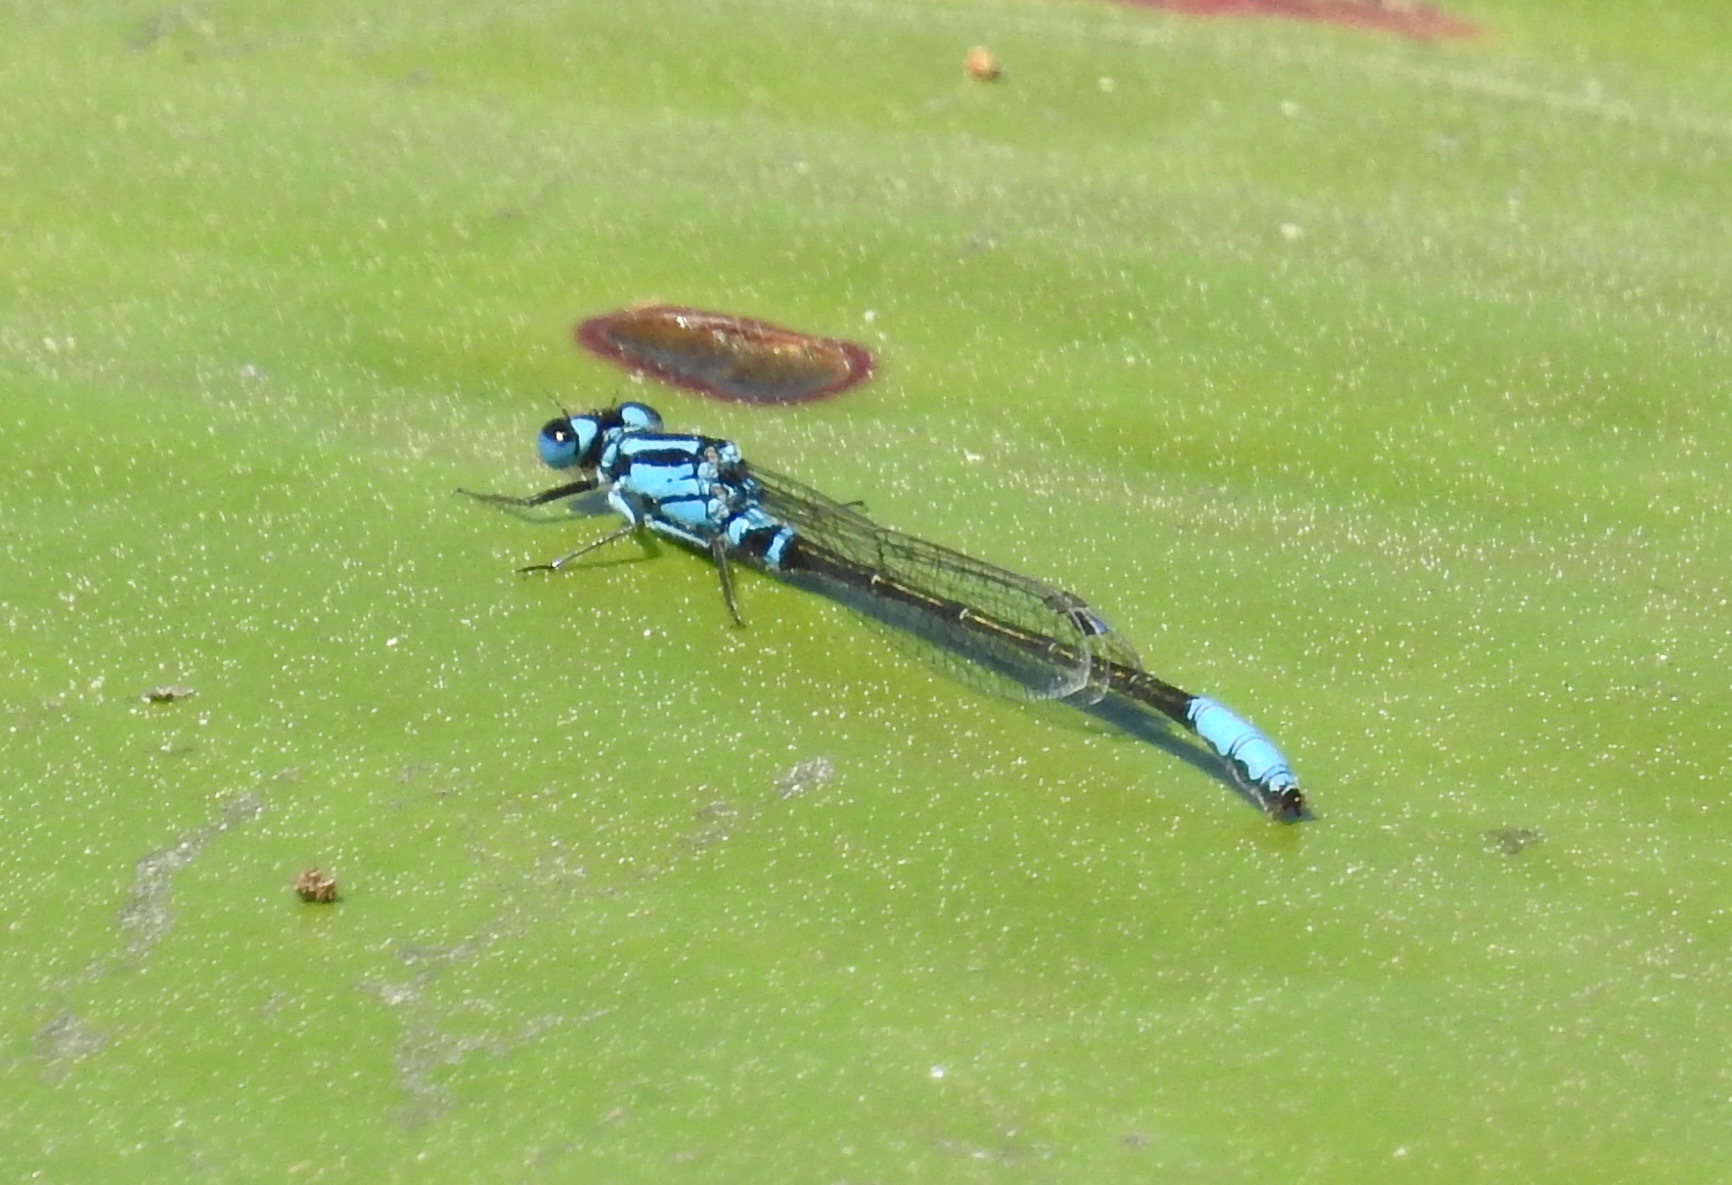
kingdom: Animalia
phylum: Arthropoda
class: Insecta
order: Odonata
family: Coenagrionidae
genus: Ischnura
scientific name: Ischnura kellicotti
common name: Lilypad forktail
